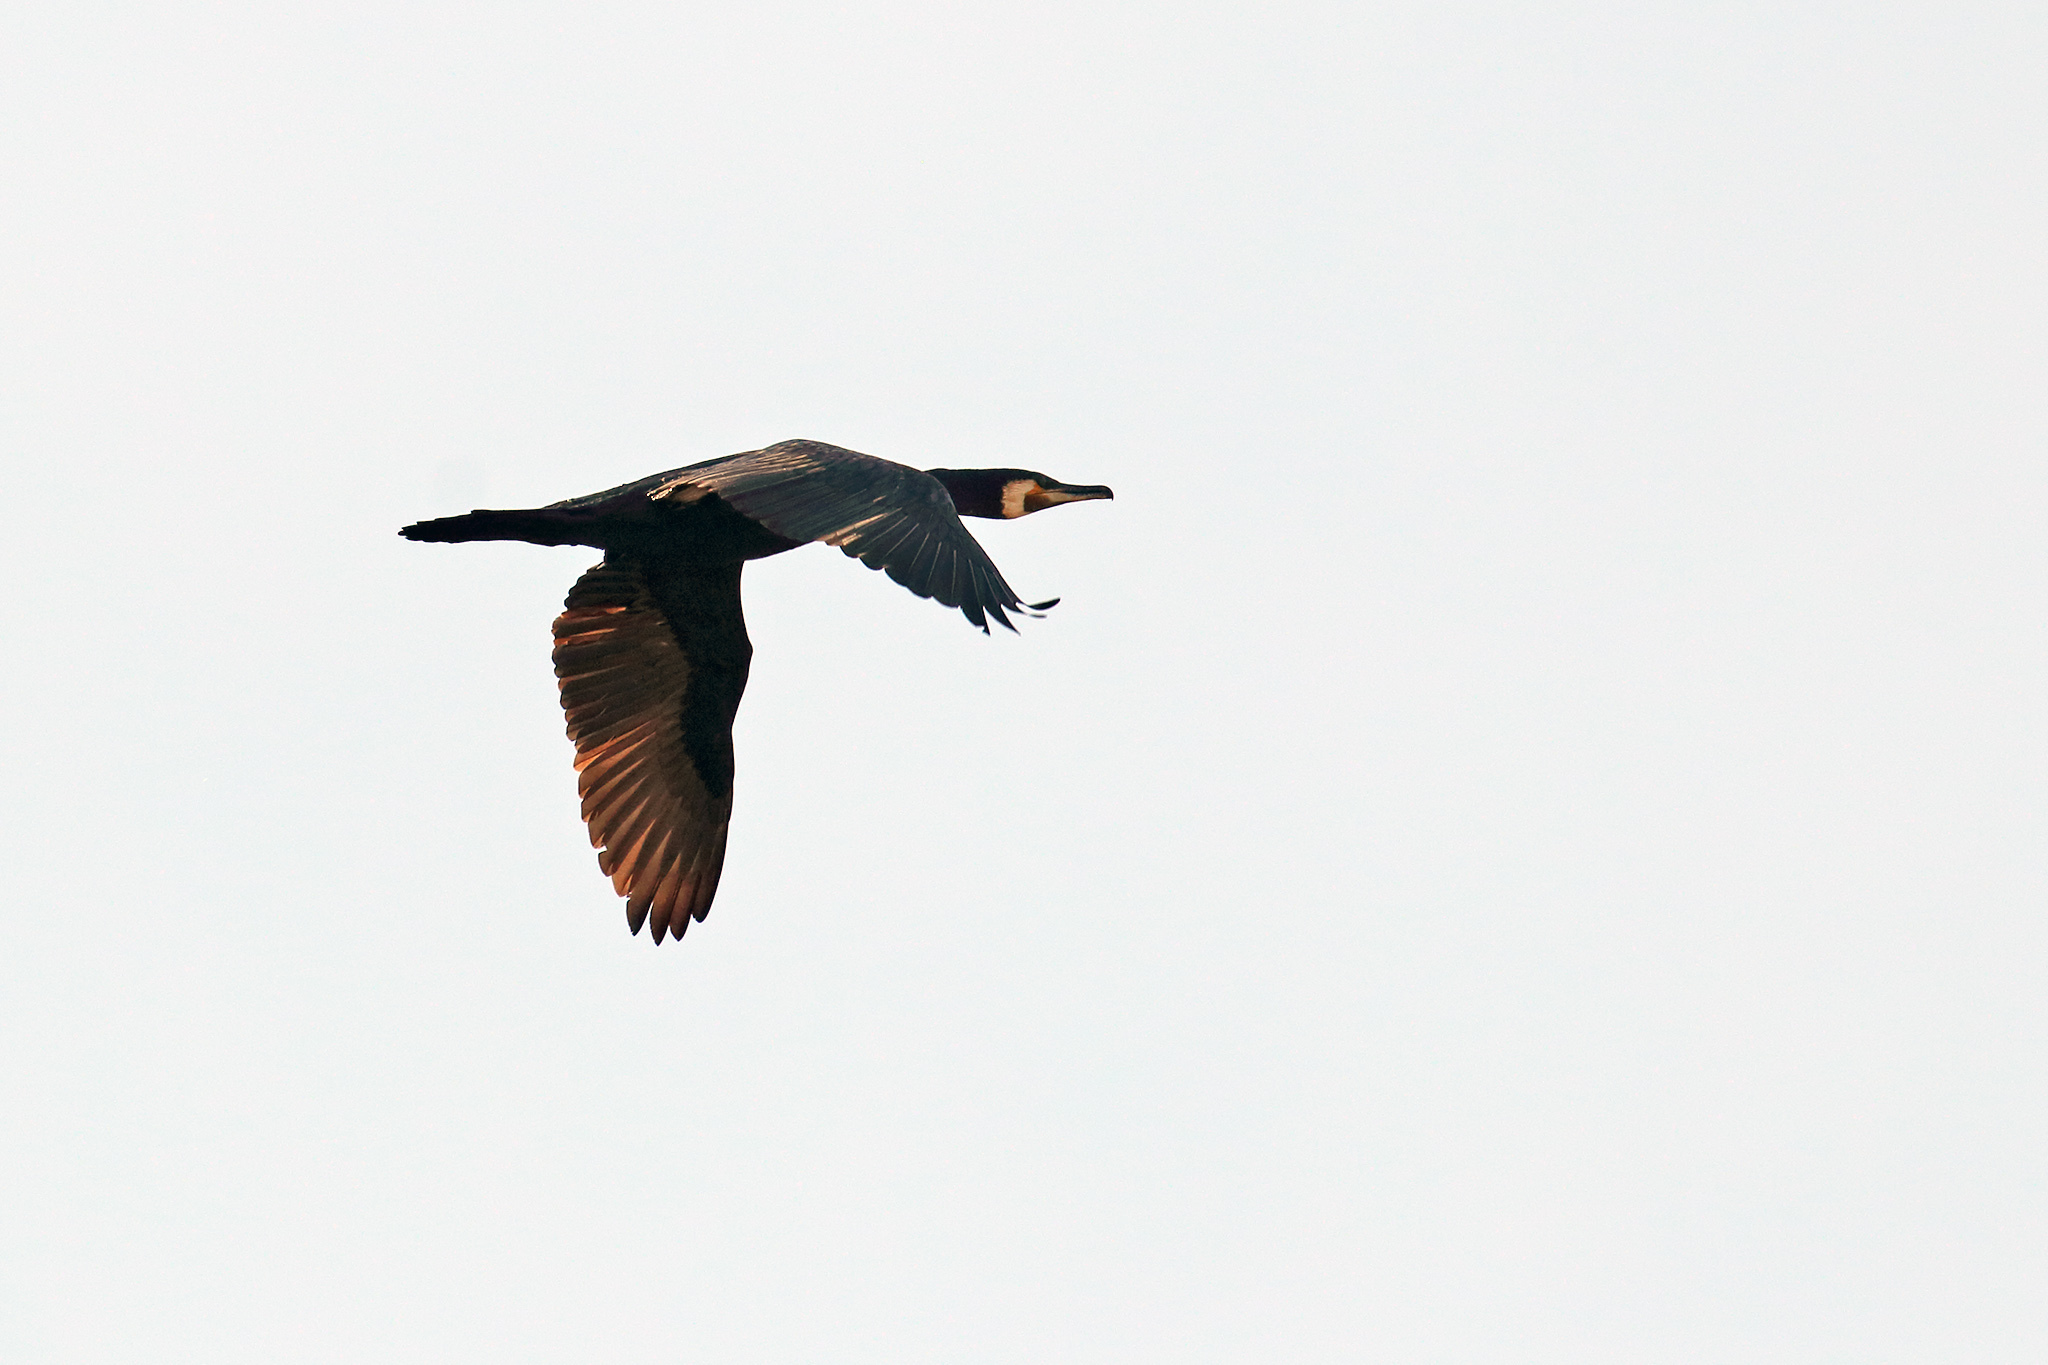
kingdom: Animalia
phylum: Chordata
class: Aves
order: Suliformes
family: Phalacrocoracidae
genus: Phalacrocorax
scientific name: Phalacrocorax carbo
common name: Great cormorant
